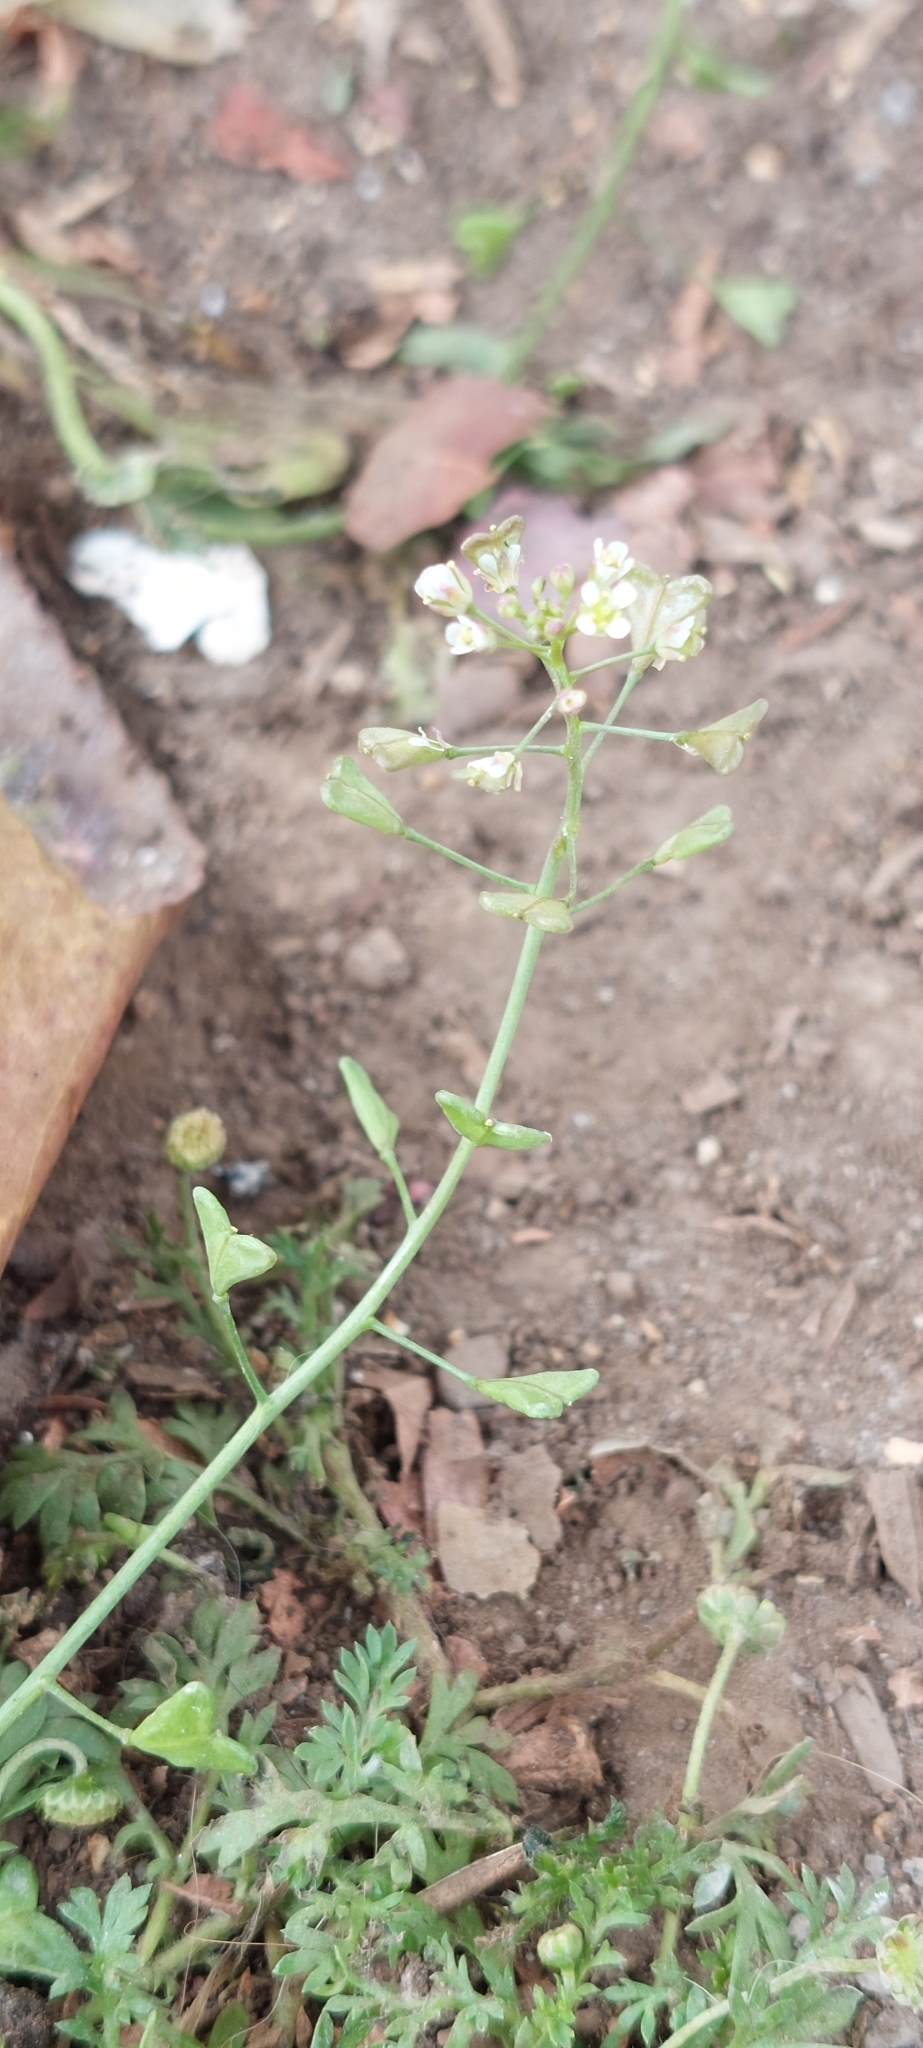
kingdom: Plantae
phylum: Tracheophyta
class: Magnoliopsida
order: Brassicales
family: Brassicaceae
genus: Capsella
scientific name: Capsella bursa-pastoris
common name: Shepherd's purse
